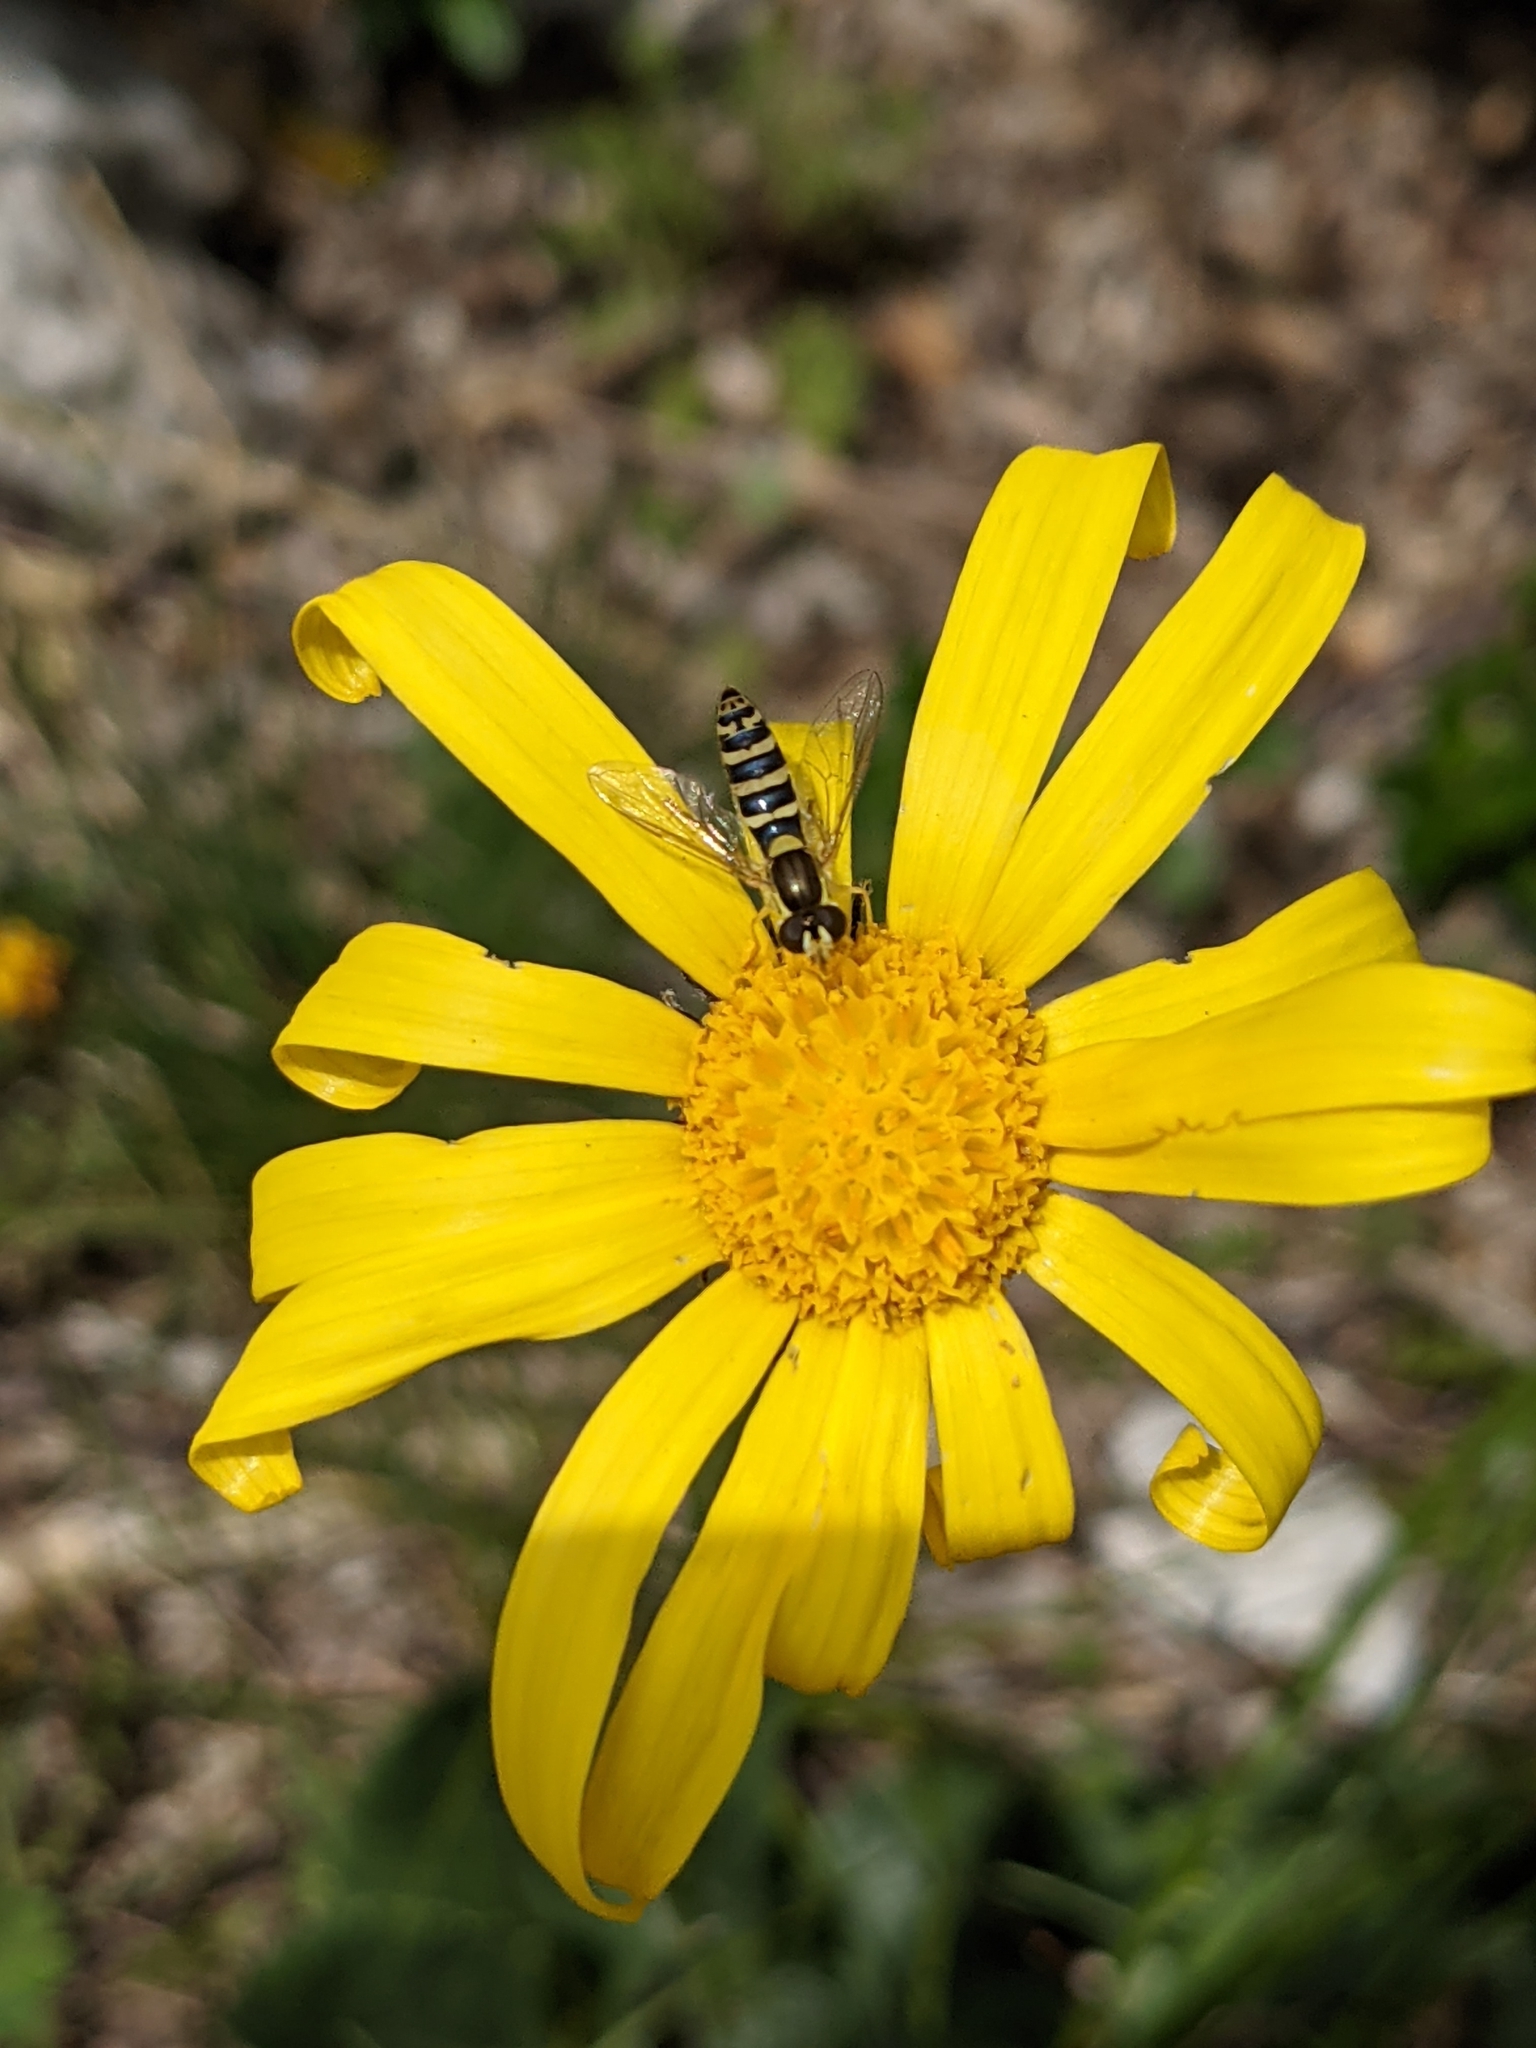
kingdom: Plantae
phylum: Tracheophyta
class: Magnoliopsida
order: Asterales
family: Asteraceae
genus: Senecio
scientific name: Senecio provincialis
